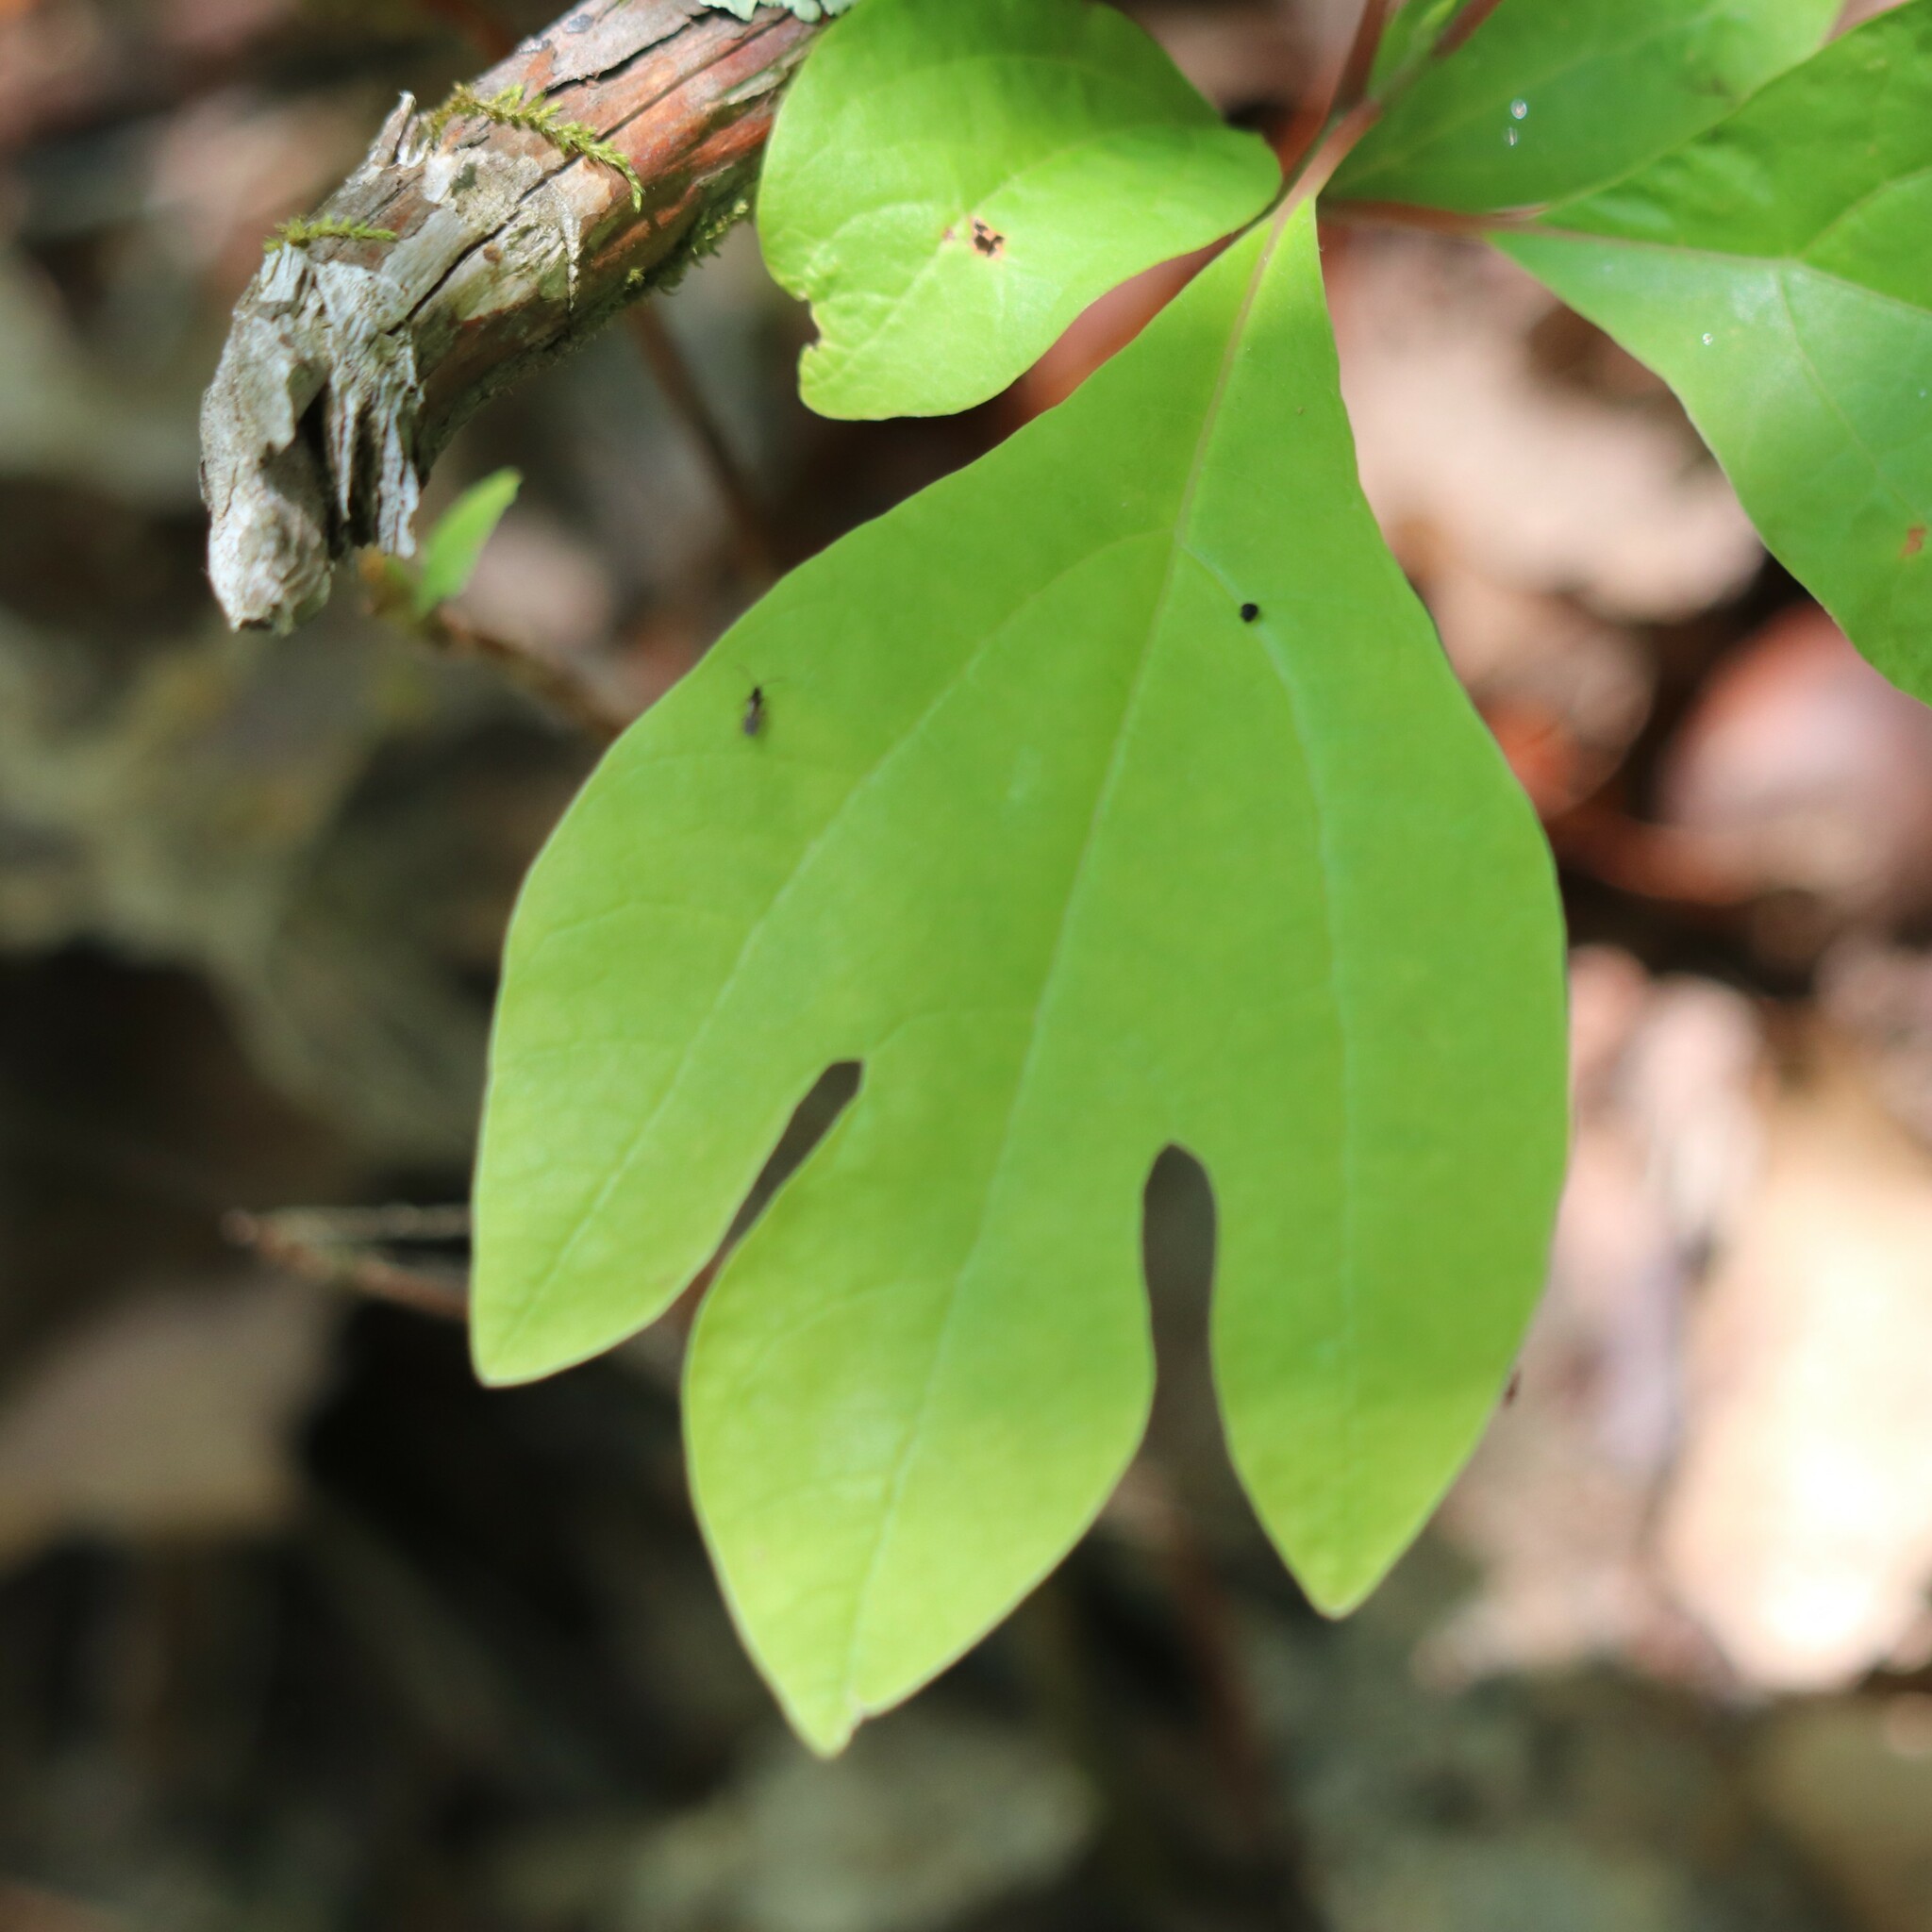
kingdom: Plantae
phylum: Tracheophyta
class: Magnoliopsida
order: Laurales
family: Lauraceae
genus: Sassafras
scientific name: Sassafras albidum
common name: Sassafras
